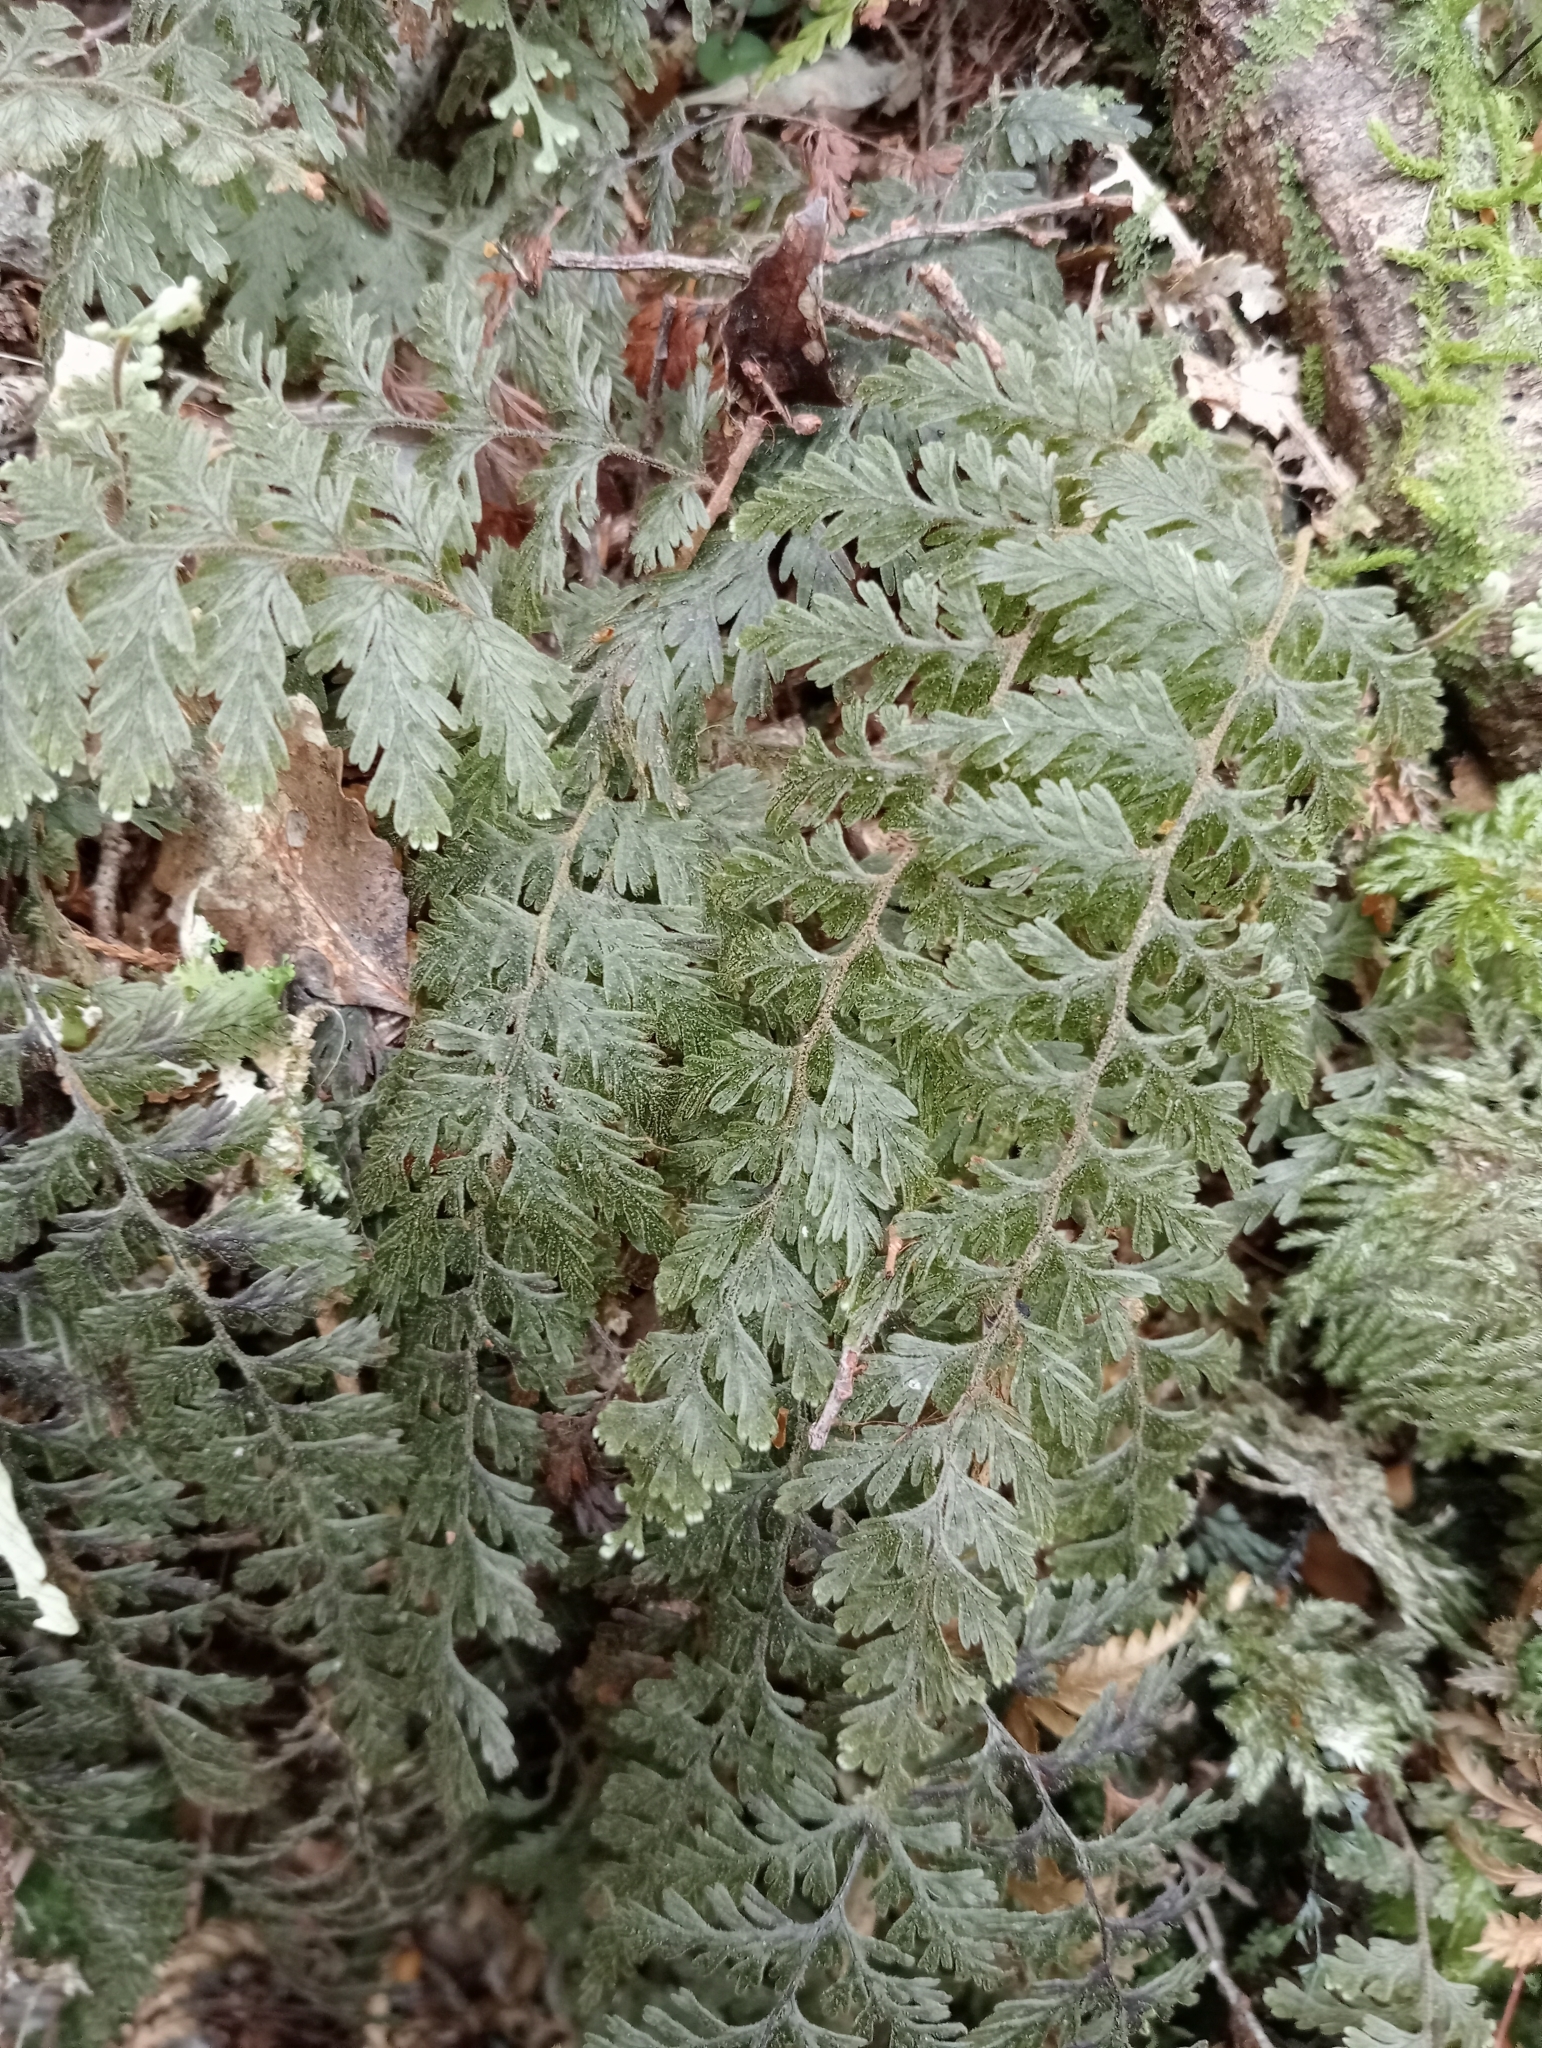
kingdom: Plantae
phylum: Tracheophyta
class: Polypodiopsida
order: Hymenophyllales
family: Hymenophyllaceae
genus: Hymenophyllum
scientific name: Hymenophyllum frankliniae
